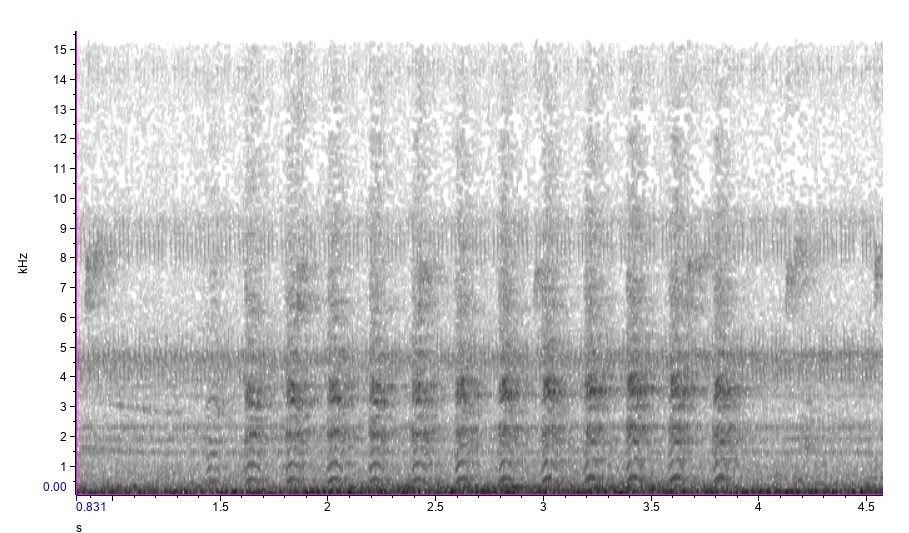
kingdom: Animalia
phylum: Chordata
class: Aves
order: Accipitriformes
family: Accipitridae
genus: Accipiter
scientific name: Accipiter cooperii
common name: Cooper's hawk
